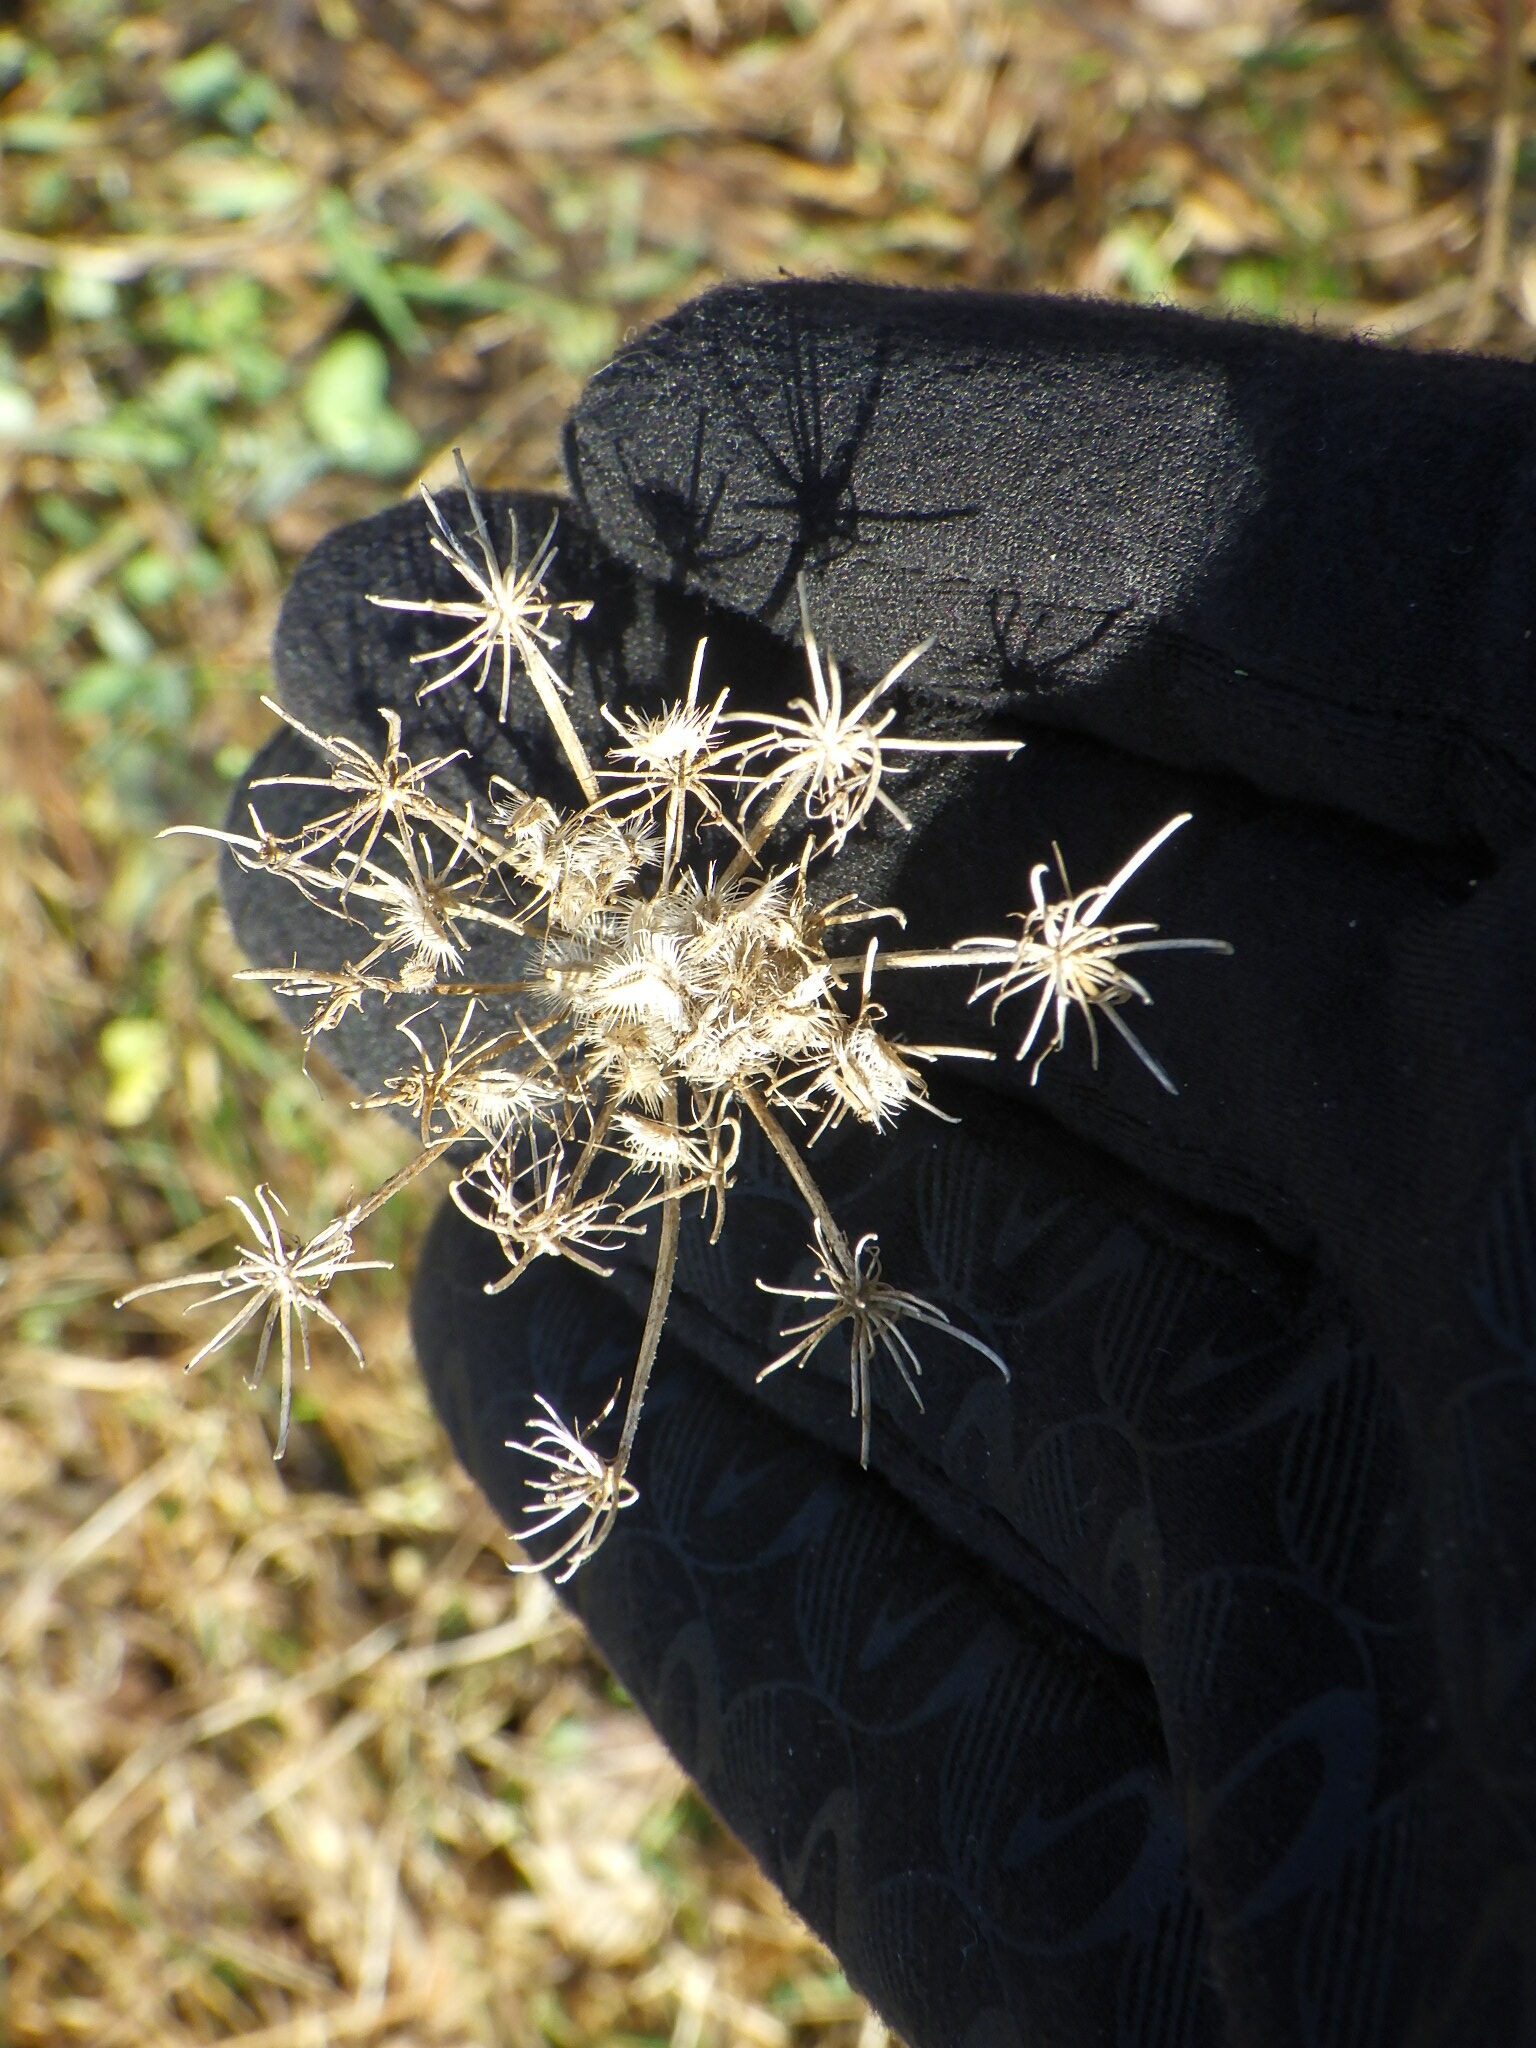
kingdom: Plantae
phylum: Tracheophyta
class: Magnoliopsida
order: Apiales
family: Apiaceae
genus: Daucus
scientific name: Daucus carota
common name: Wild carrot
